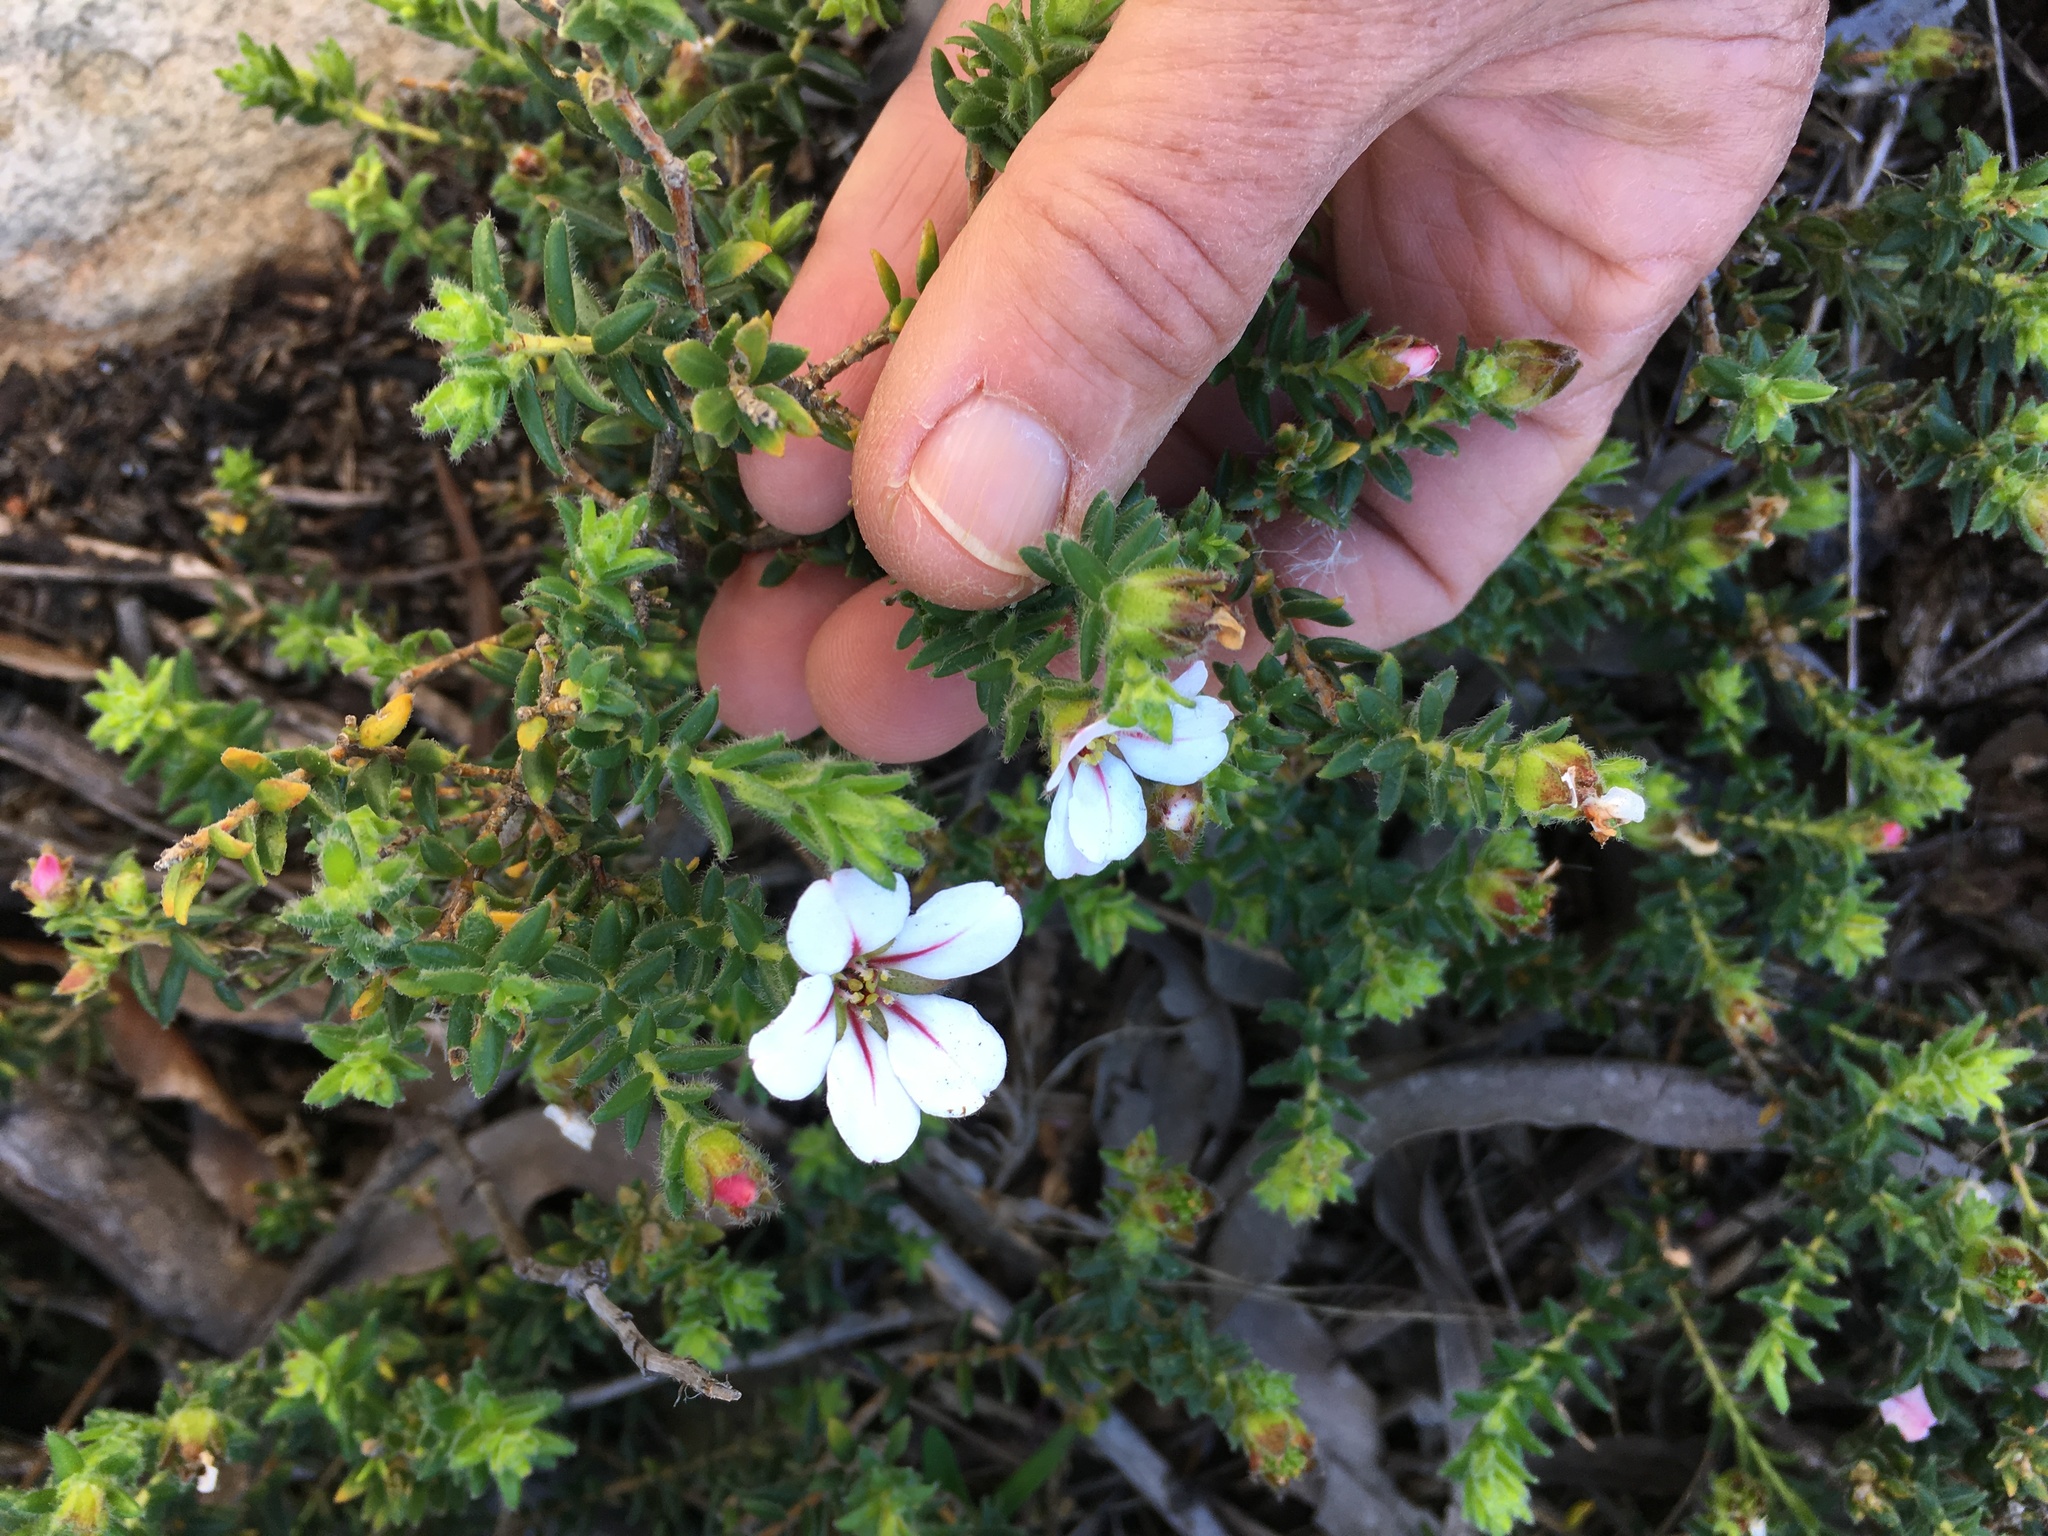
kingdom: Plantae
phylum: Tracheophyta
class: Magnoliopsida
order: Sapindales
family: Rutaceae
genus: Adenandra
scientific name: Adenandra uniflora
